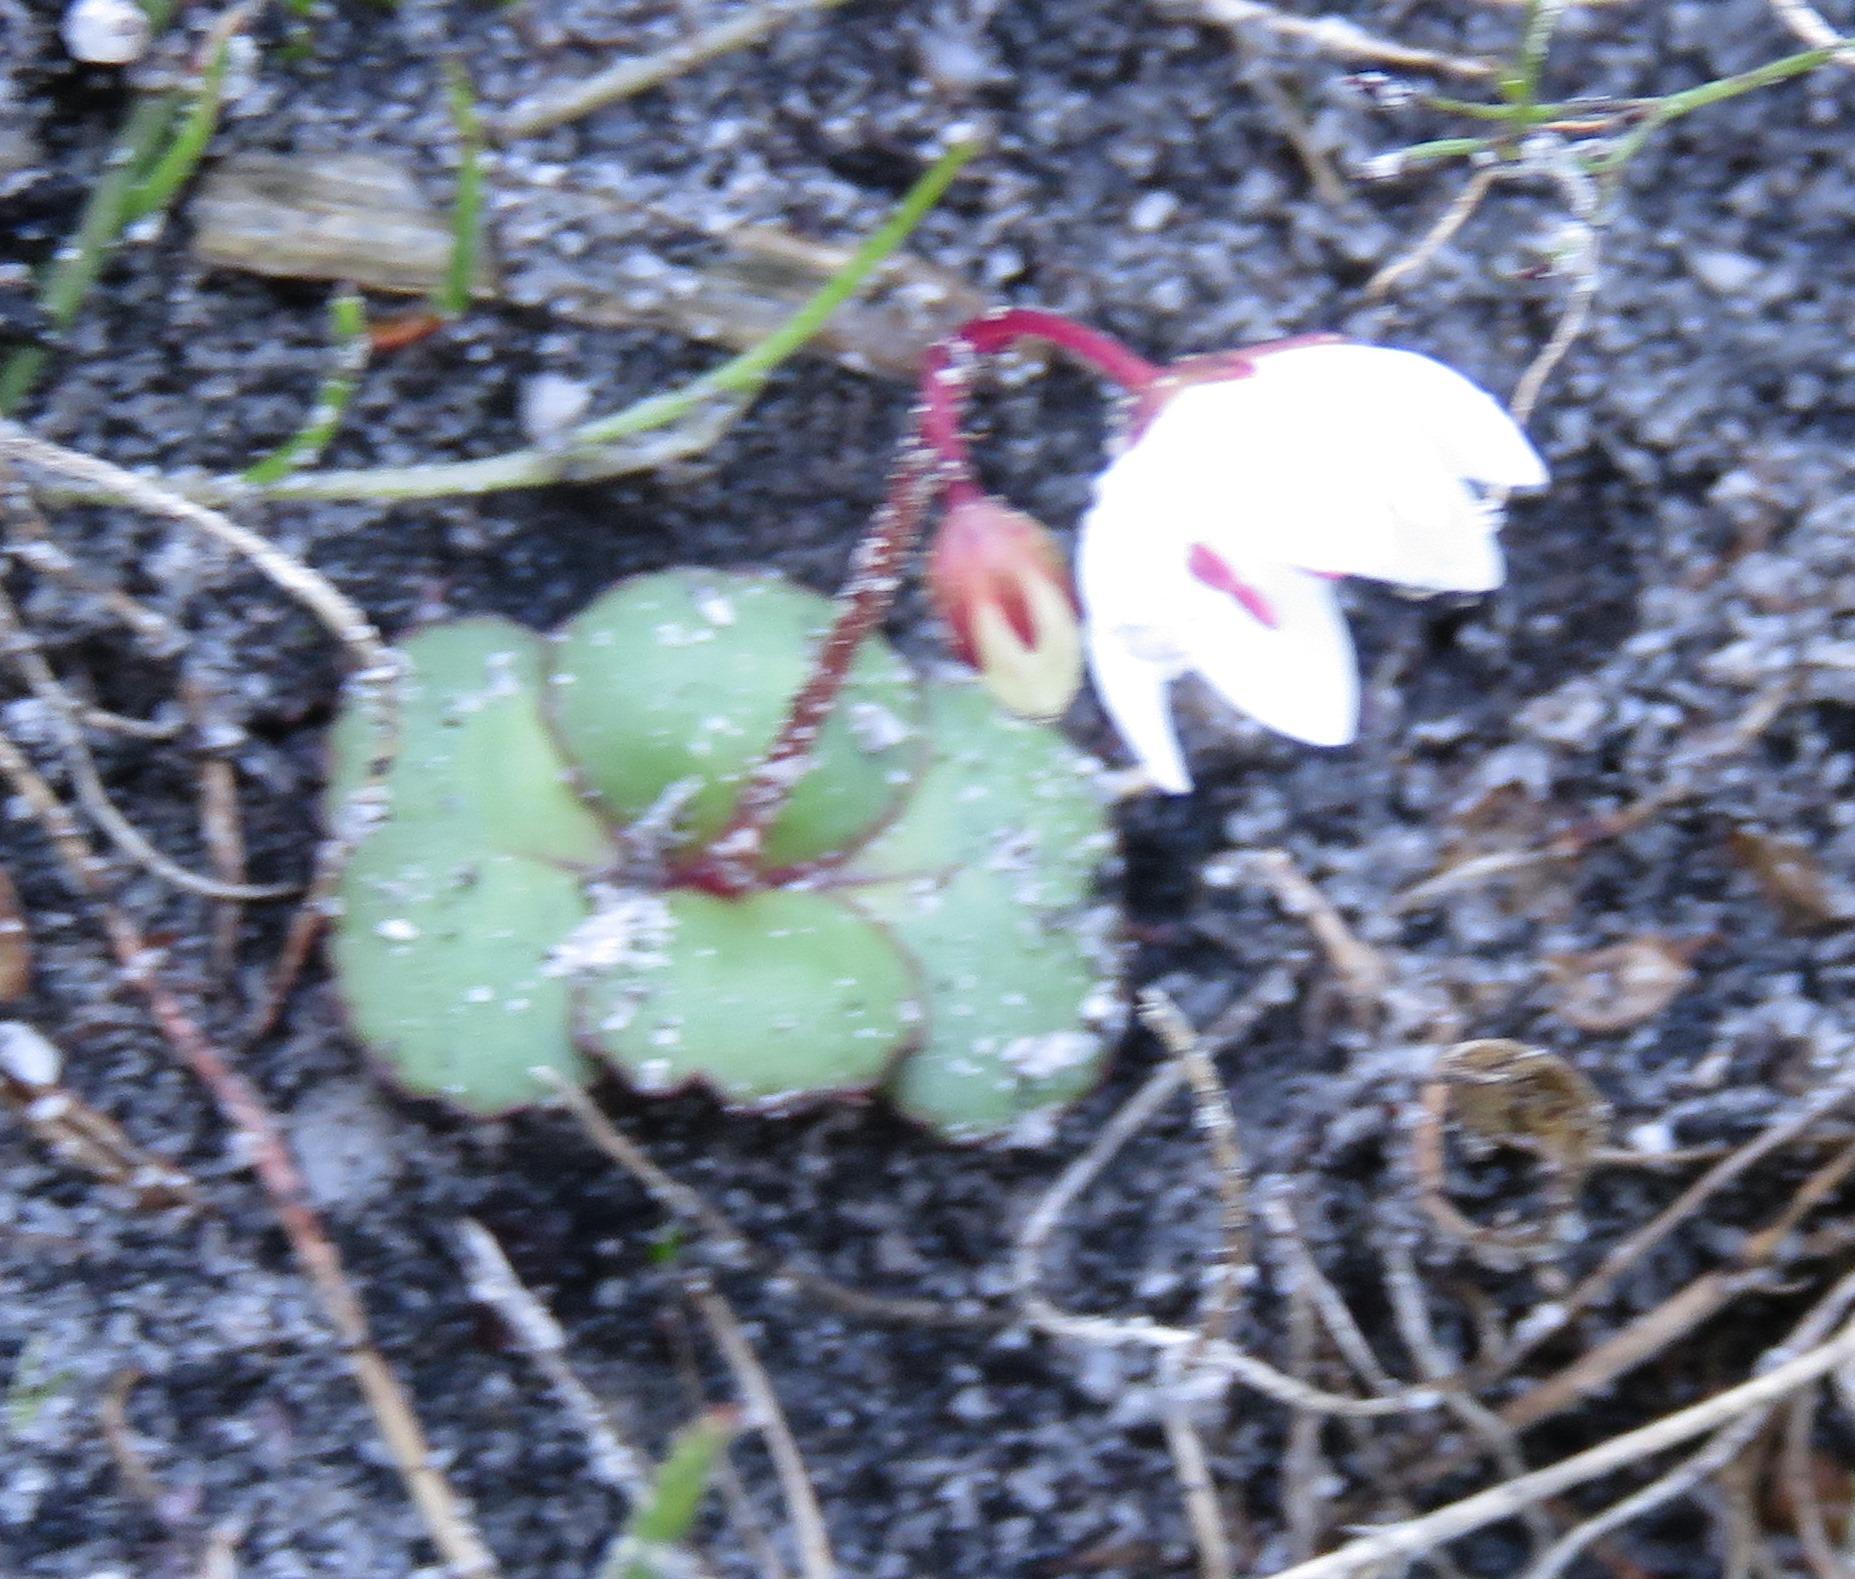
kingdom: Plantae
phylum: Tracheophyta
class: Magnoliopsida
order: Saxifragales
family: Crassulaceae
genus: Crassula
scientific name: Crassula capensis
